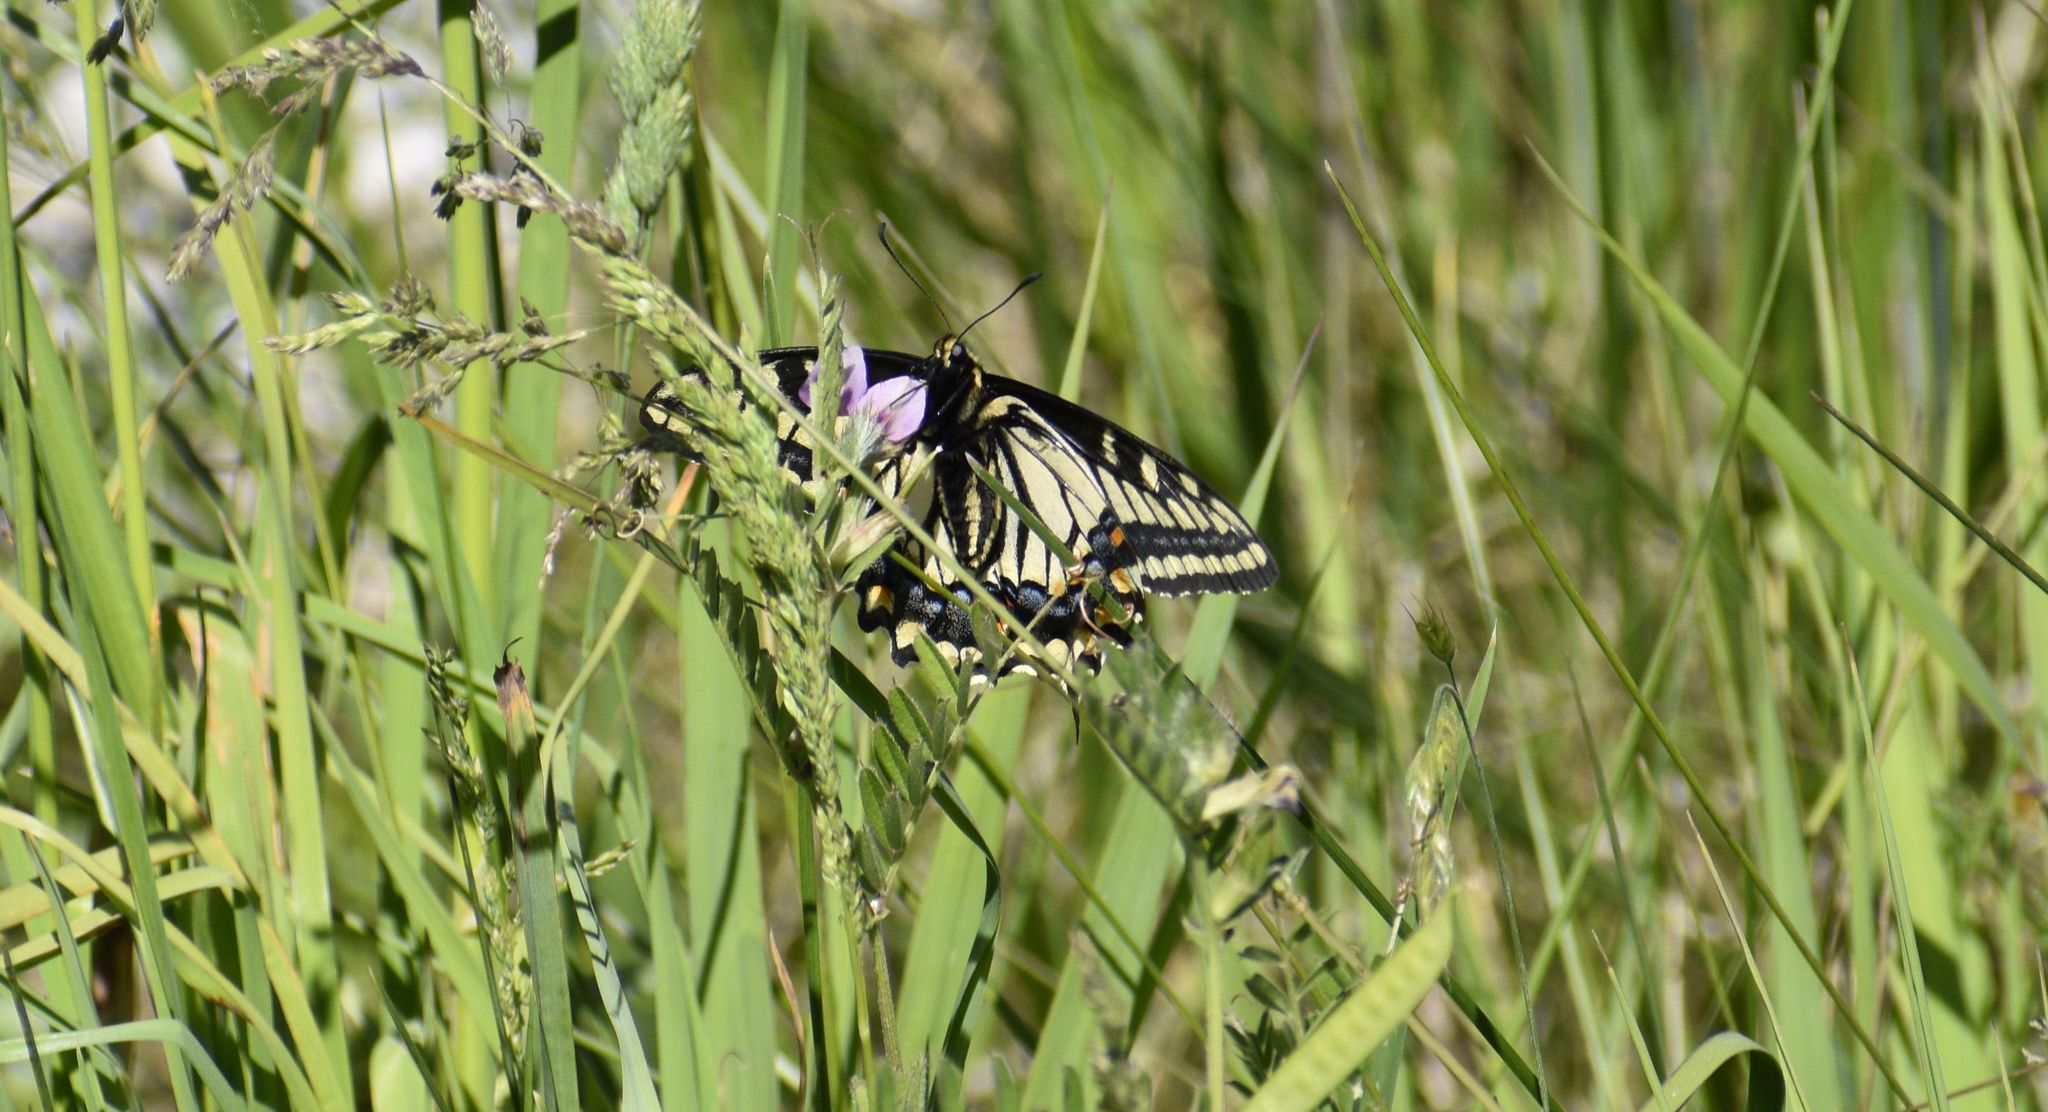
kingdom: Animalia
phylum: Arthropoda
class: Insecta
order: Lepidoptera
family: Papilionidae
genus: Papilio
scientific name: Papilio zelicaon
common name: Anise swallowtail
